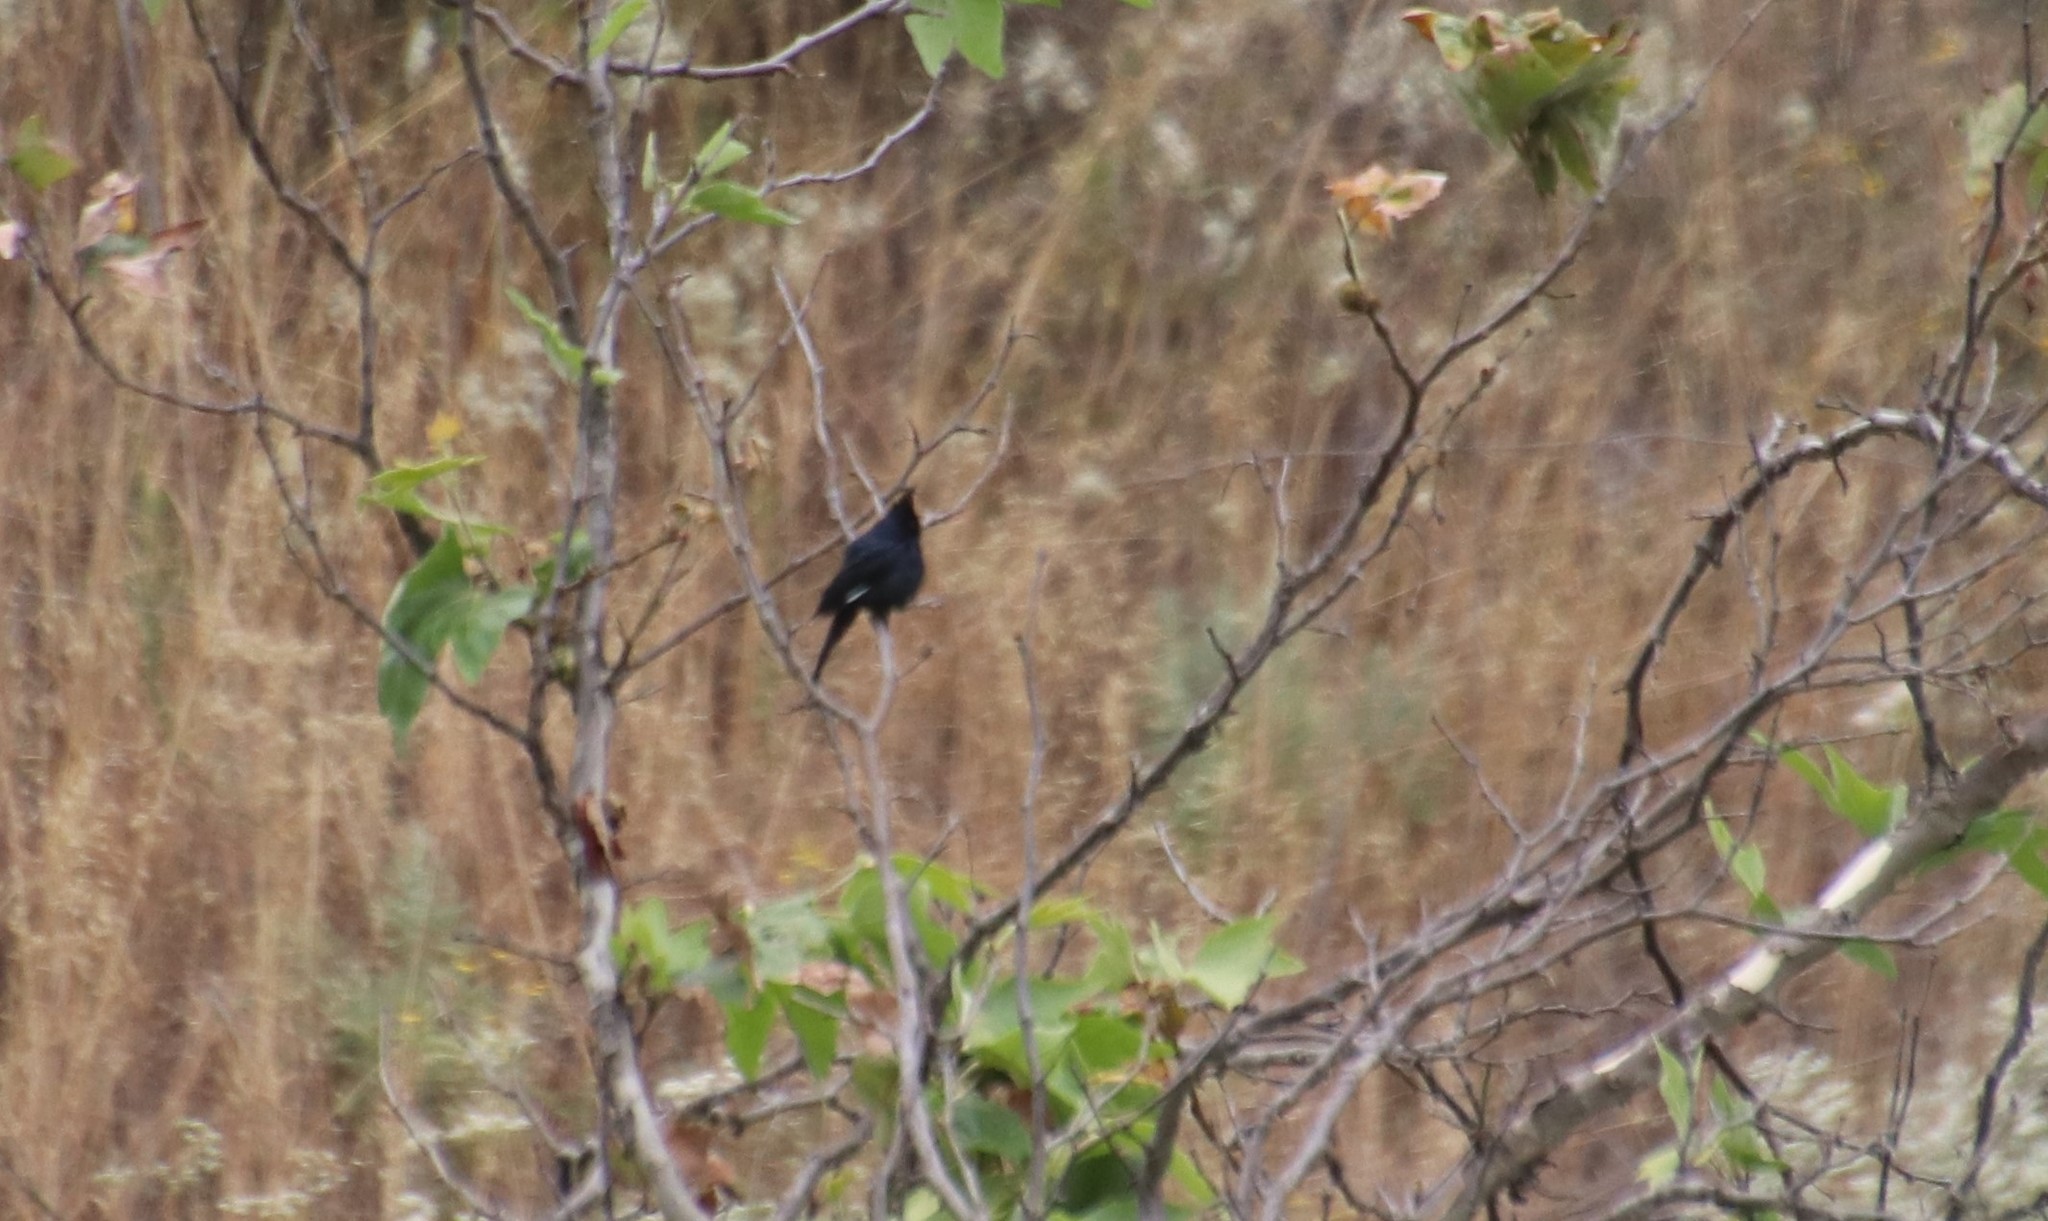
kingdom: Animalia
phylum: Chordata
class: Aves
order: Passeriformes
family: Ptilogonatidae
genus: Phainopepla
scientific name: Phainopepla nitens
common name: Phainopepla
